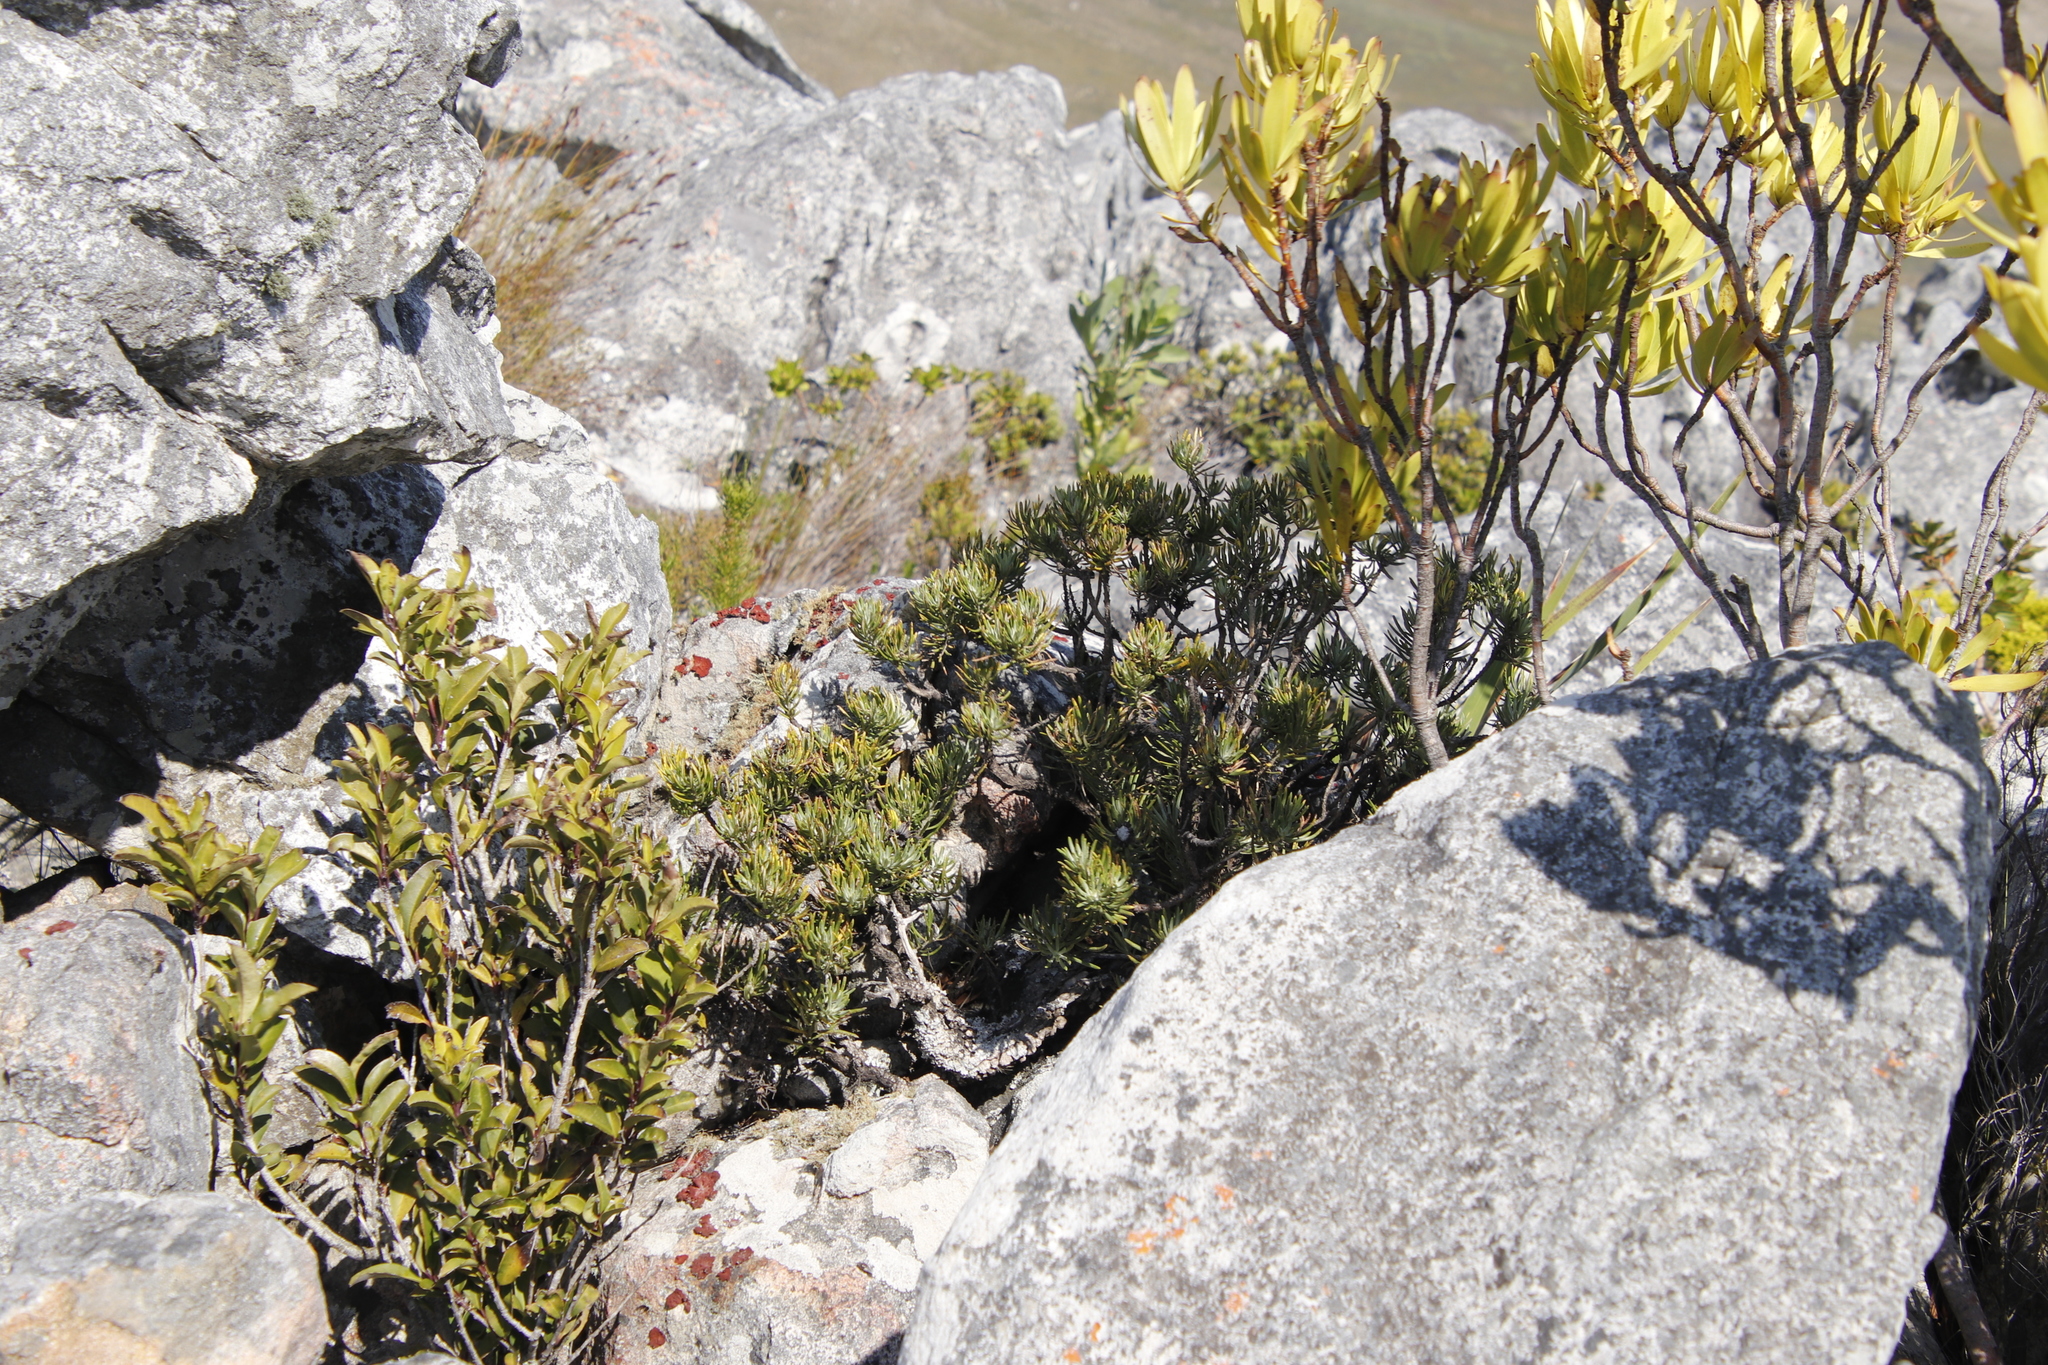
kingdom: Plantae
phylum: Tracheophyta
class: Magnoliopsida
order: Asterales
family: Asteraceae
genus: Heterolepis
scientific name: Heterolepis aliena
